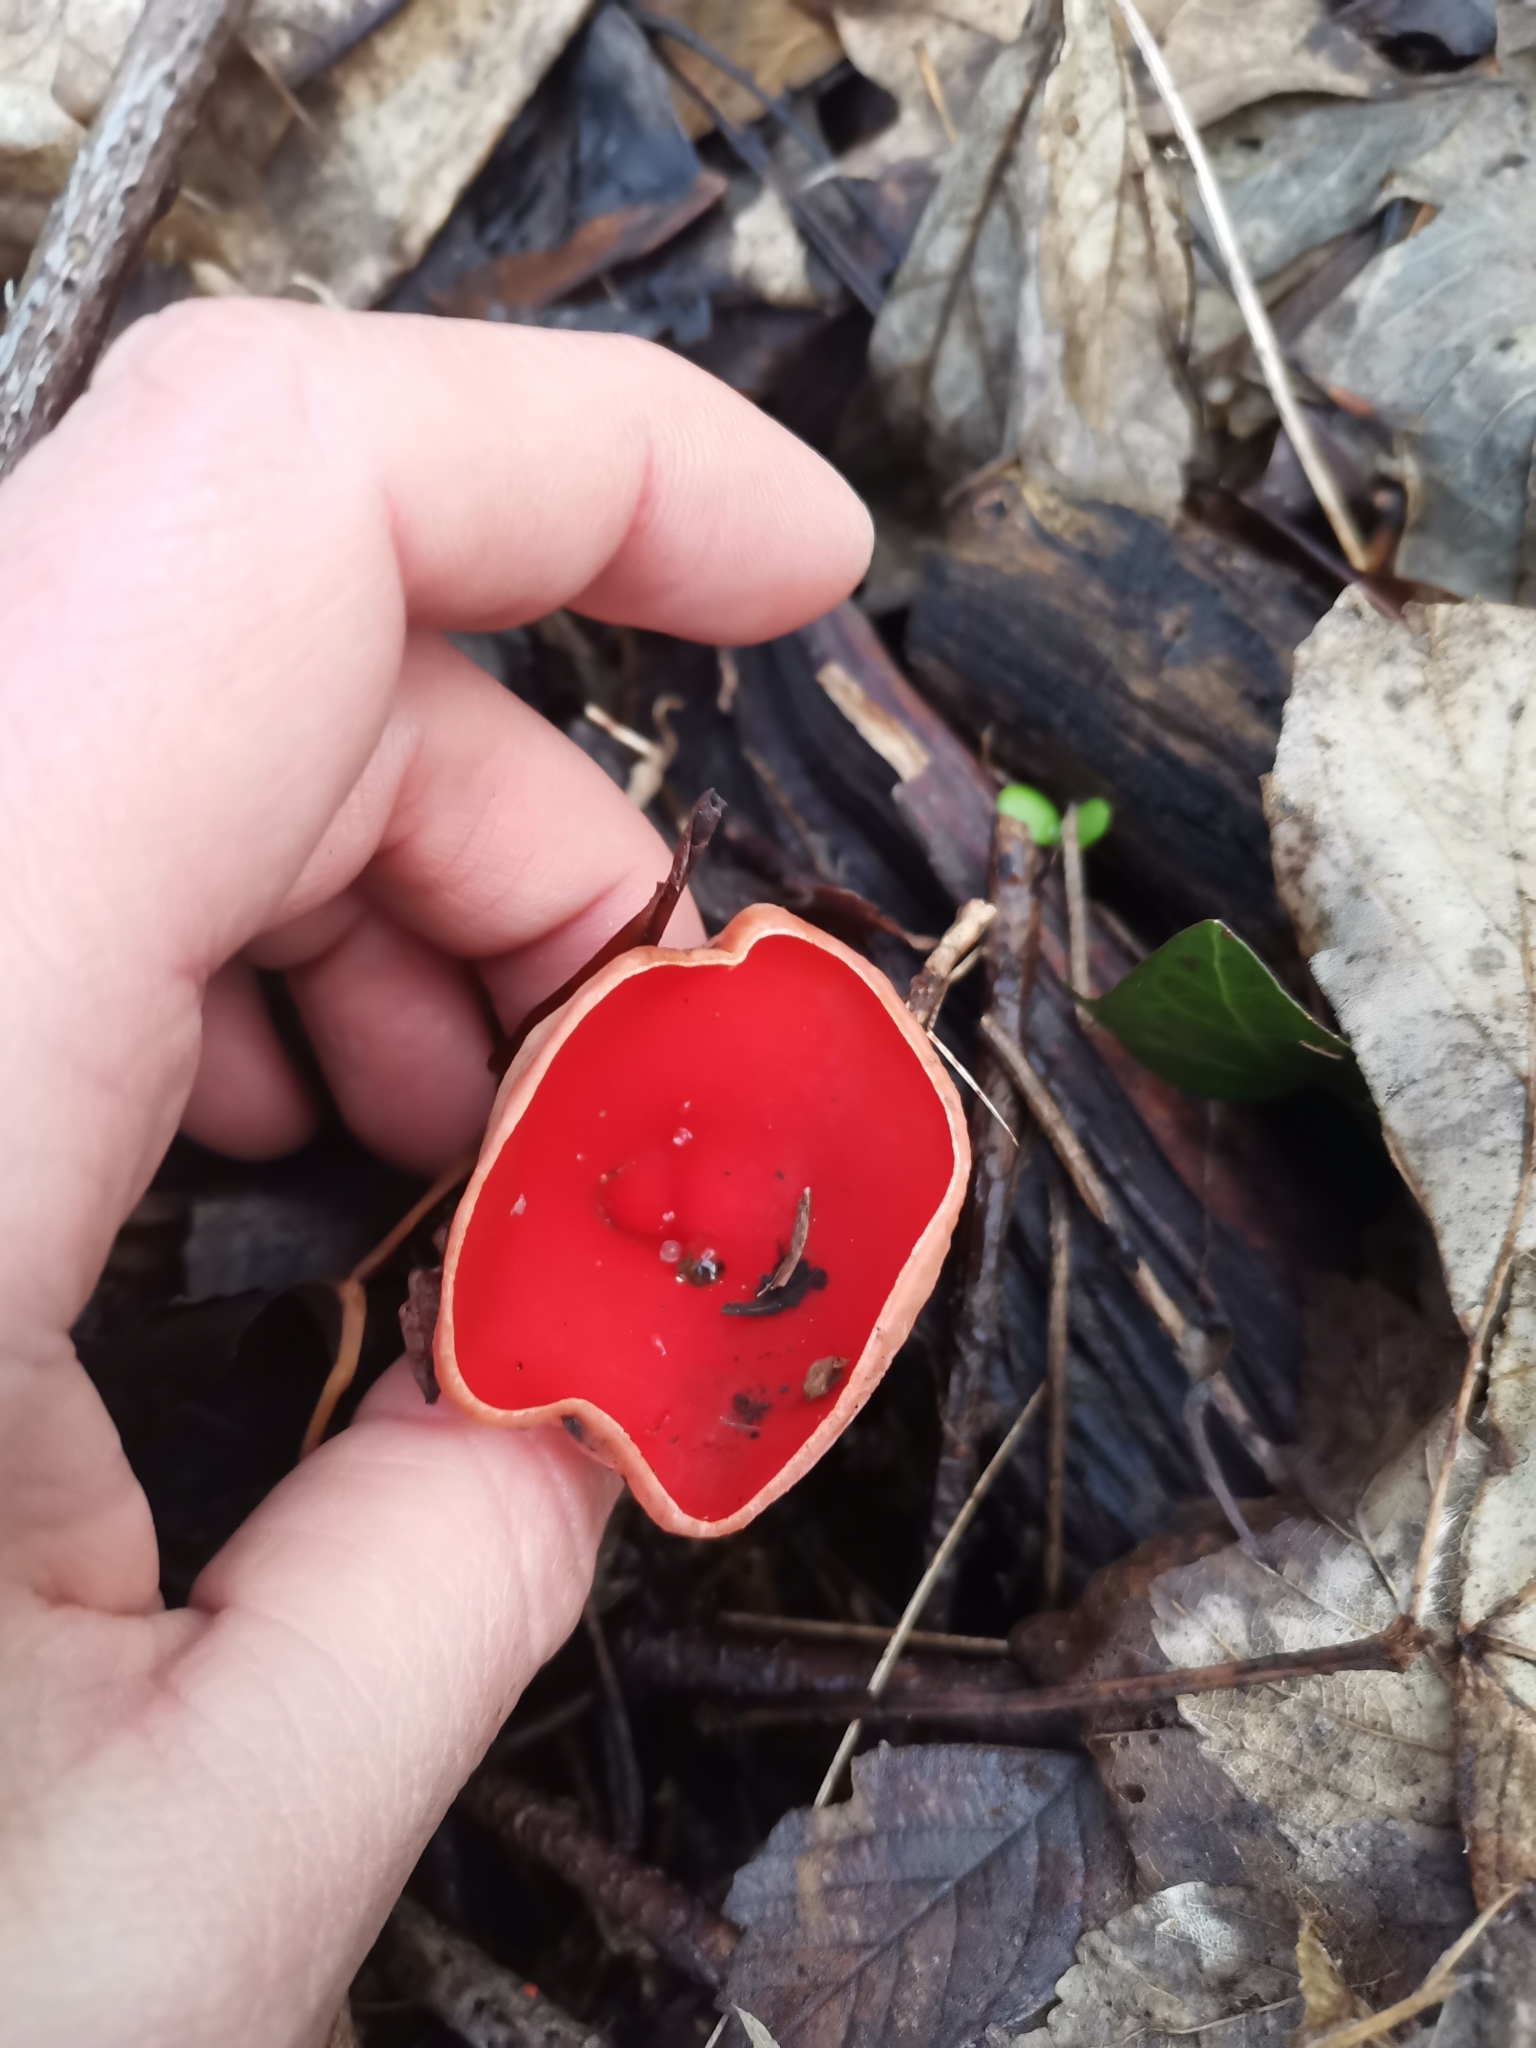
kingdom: Fungi
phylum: Ascomycota
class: Pezizomycetes
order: Pezizales
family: Sarcoscyphaceae
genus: Sarcoscypha
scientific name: Sarcoscypha
